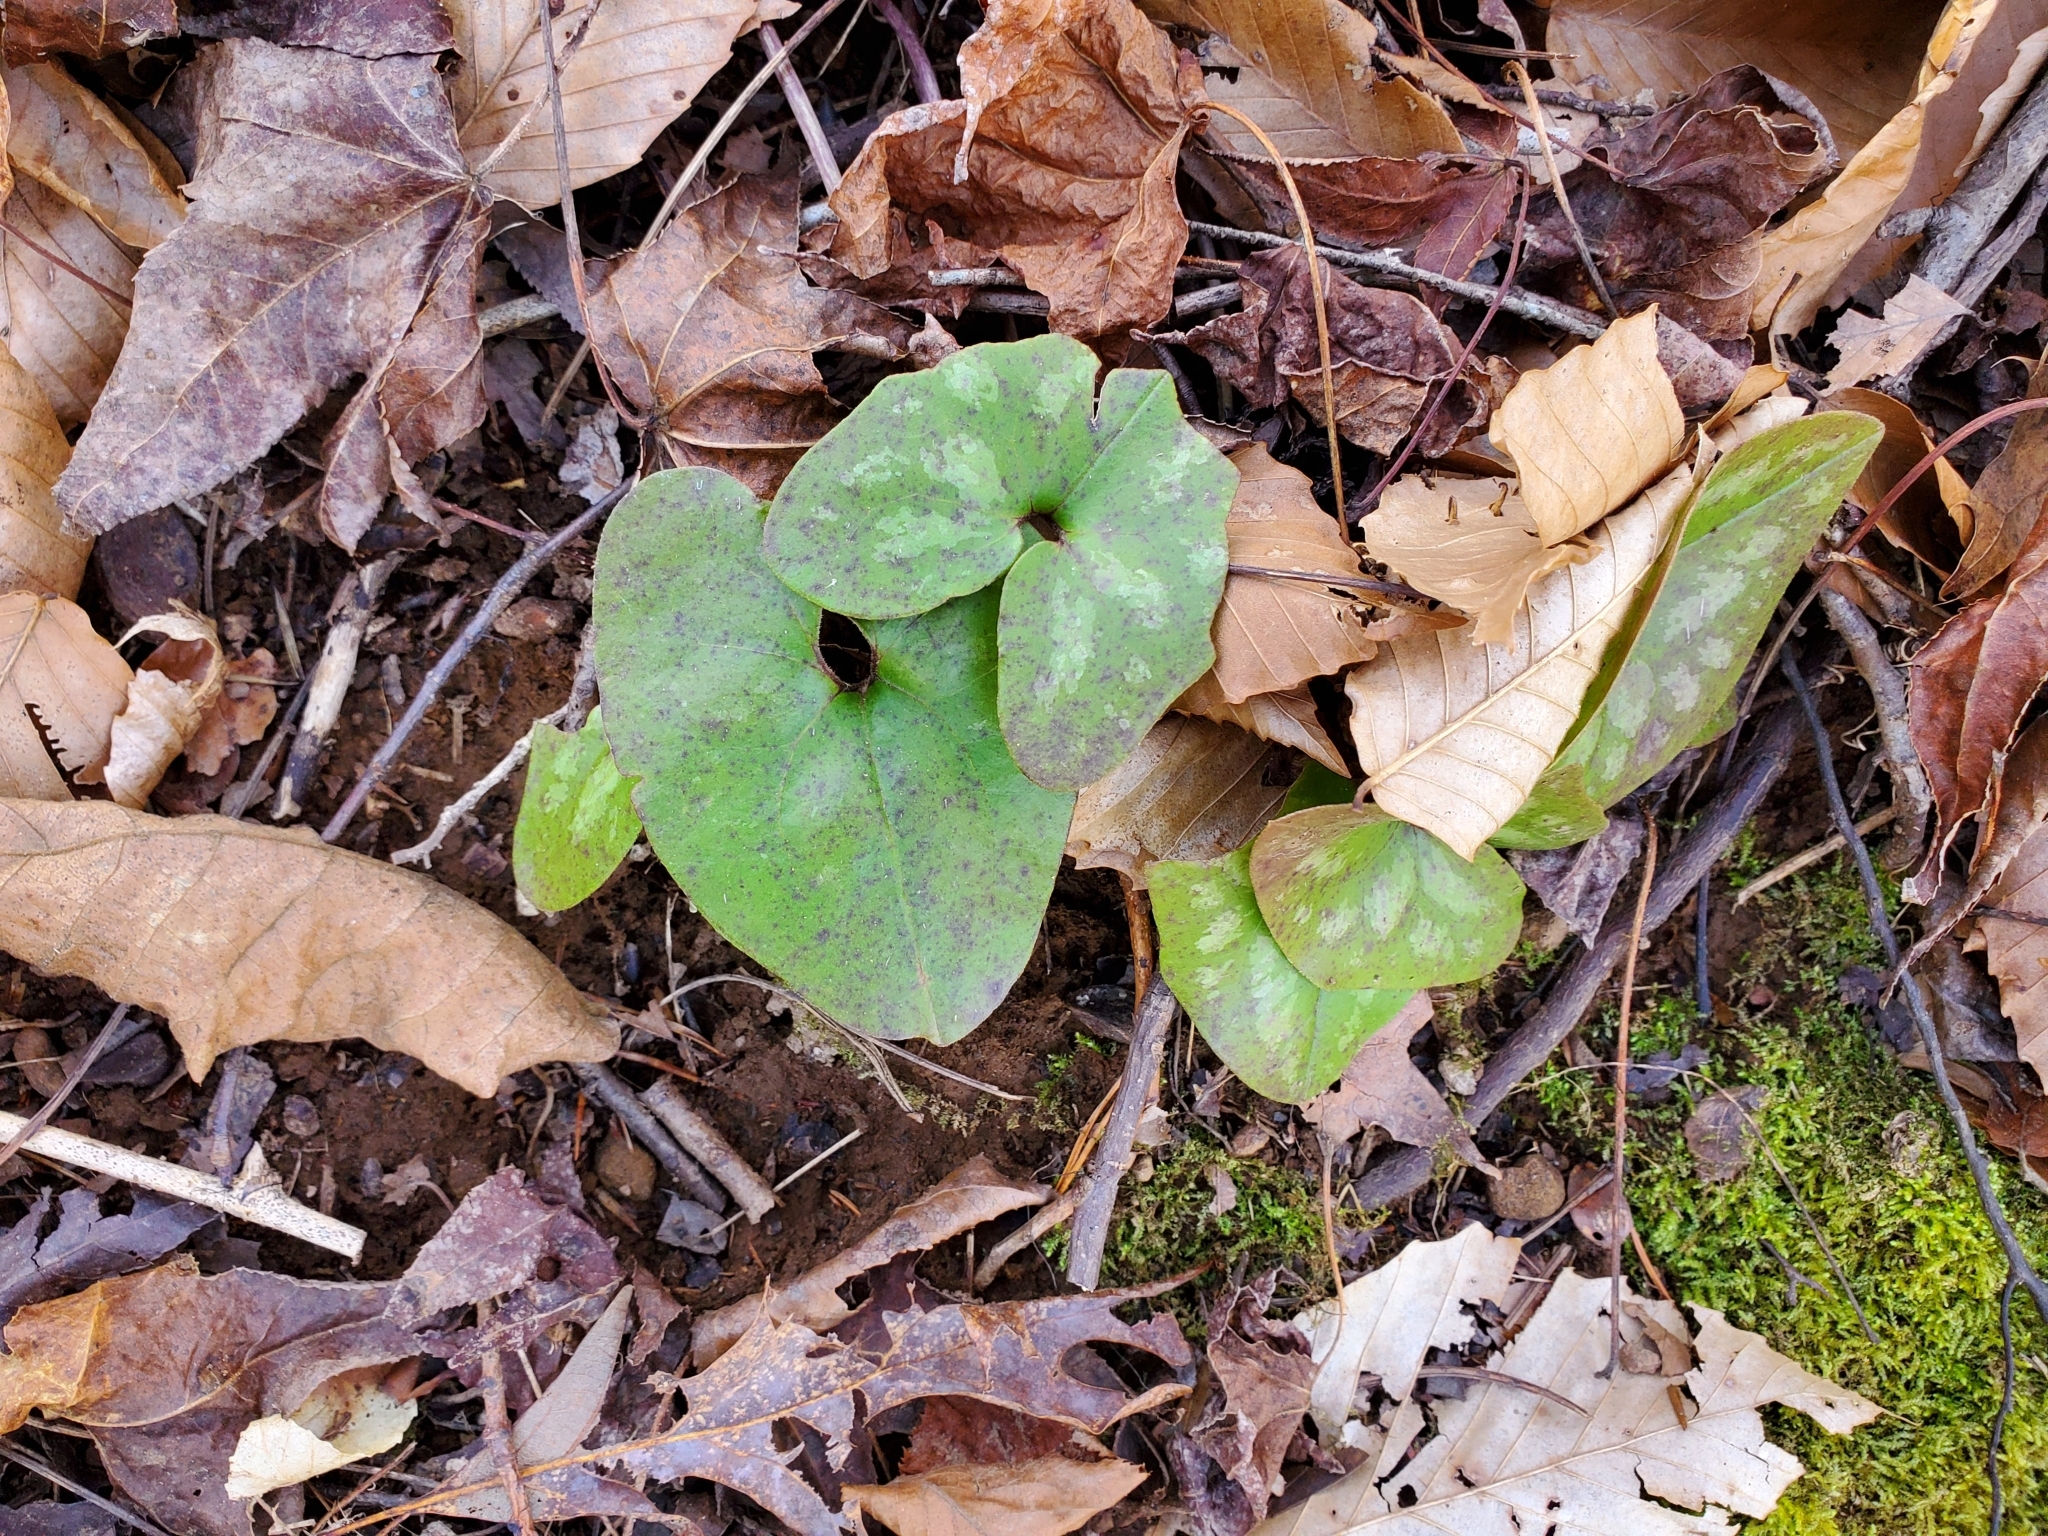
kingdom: Plantae
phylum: Tracheophyta
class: Magnoliopsida
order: Piperales
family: Aristolochiaceae
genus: Hexastylis
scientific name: Hexastylis arifolia
